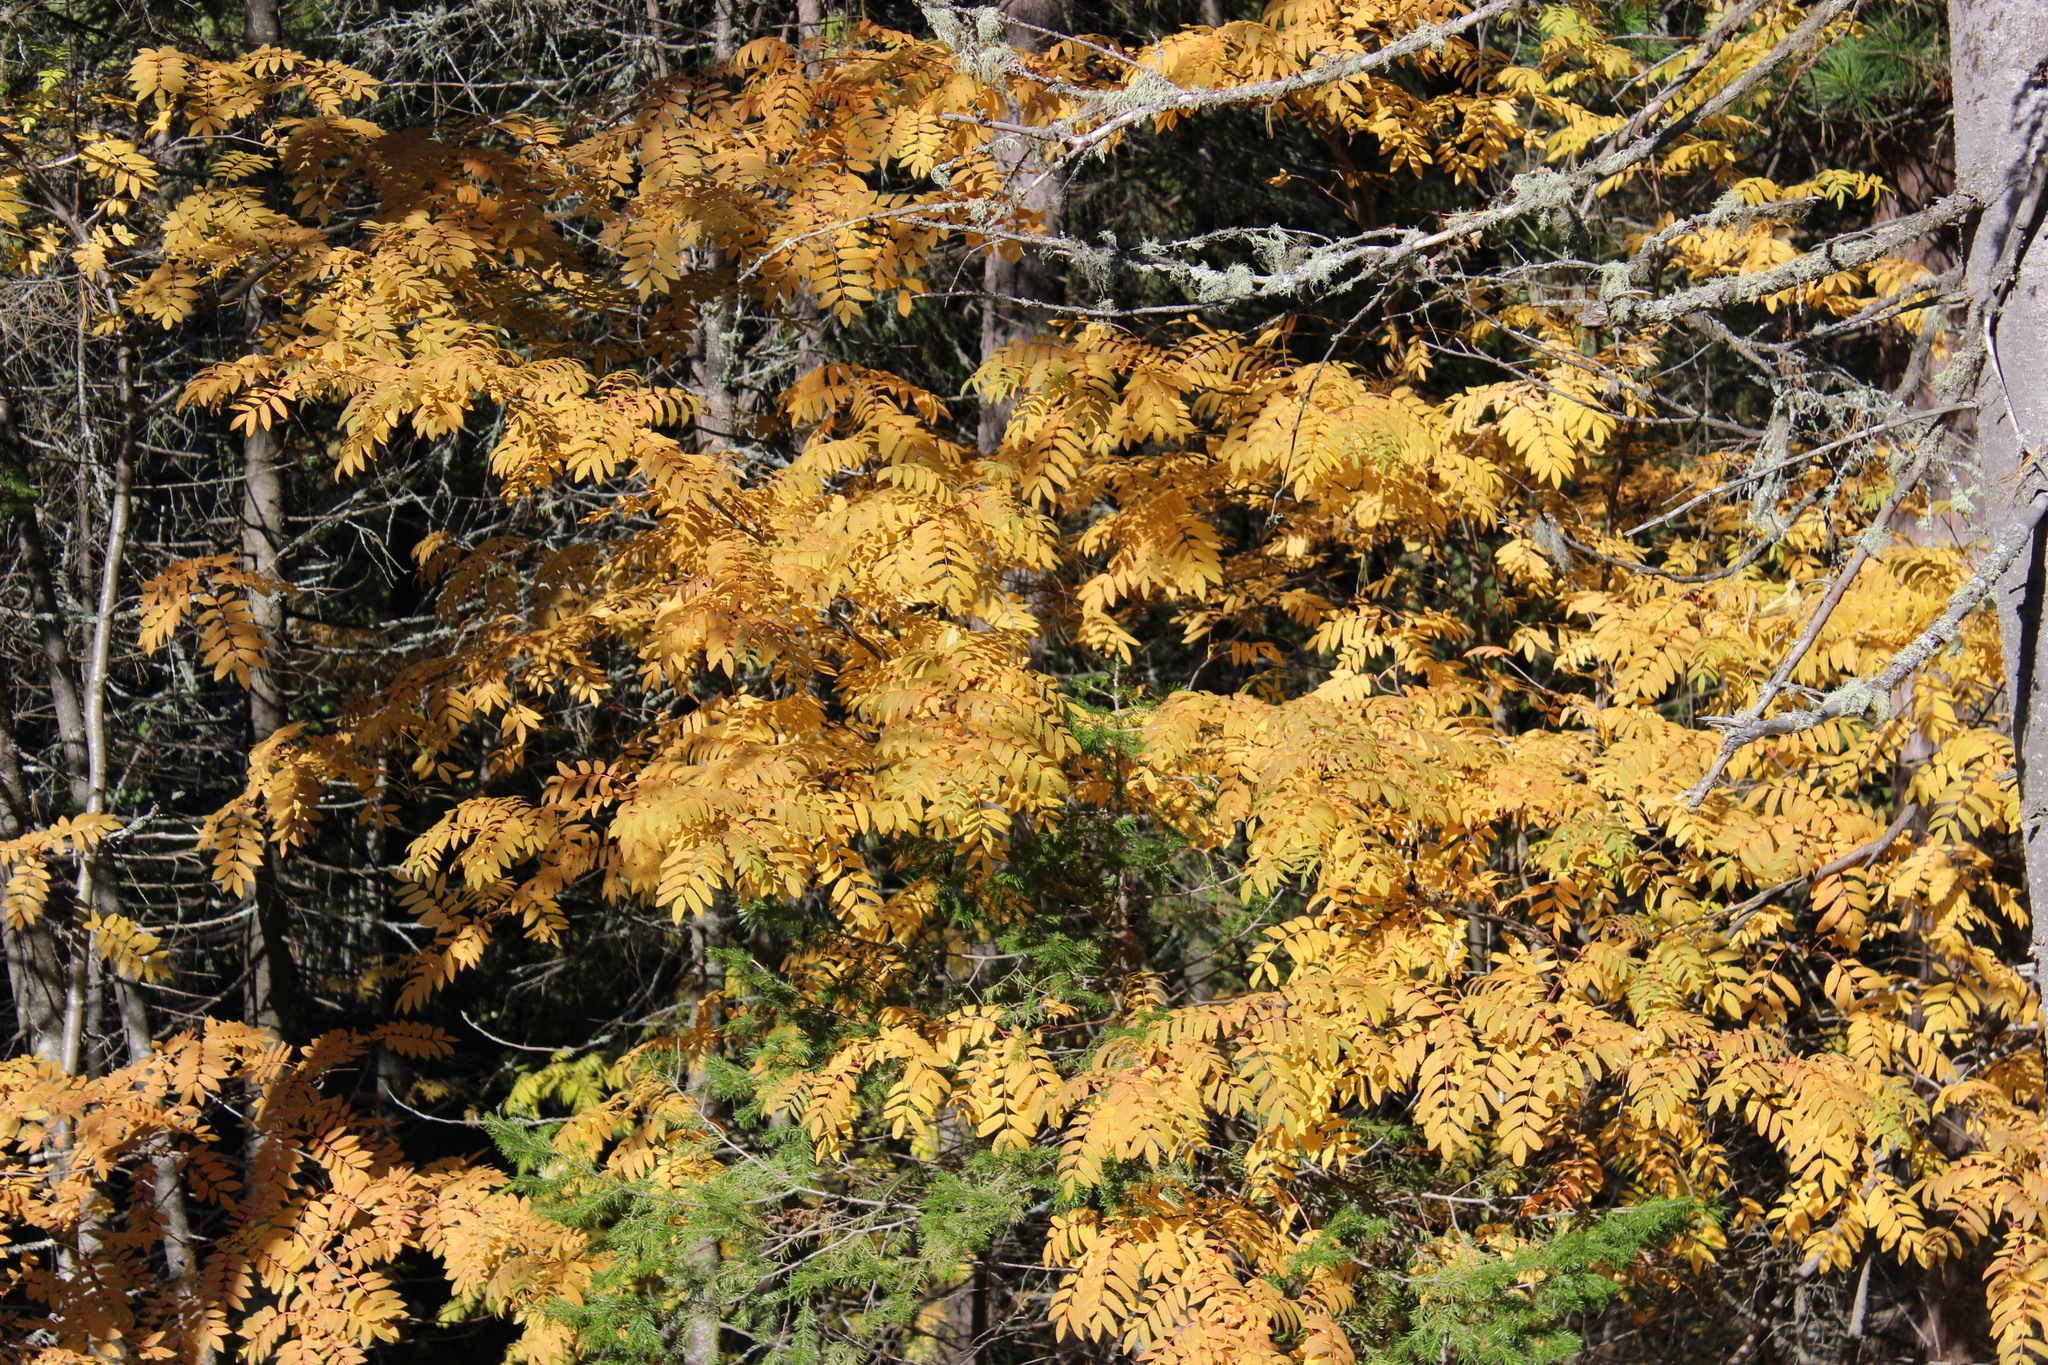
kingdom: Plantae
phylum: Tracheophyta
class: Magnoliopsida
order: Rosales
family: Rosaceae
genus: Sorbus
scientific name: Sorbus aucuparia
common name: Rowan
